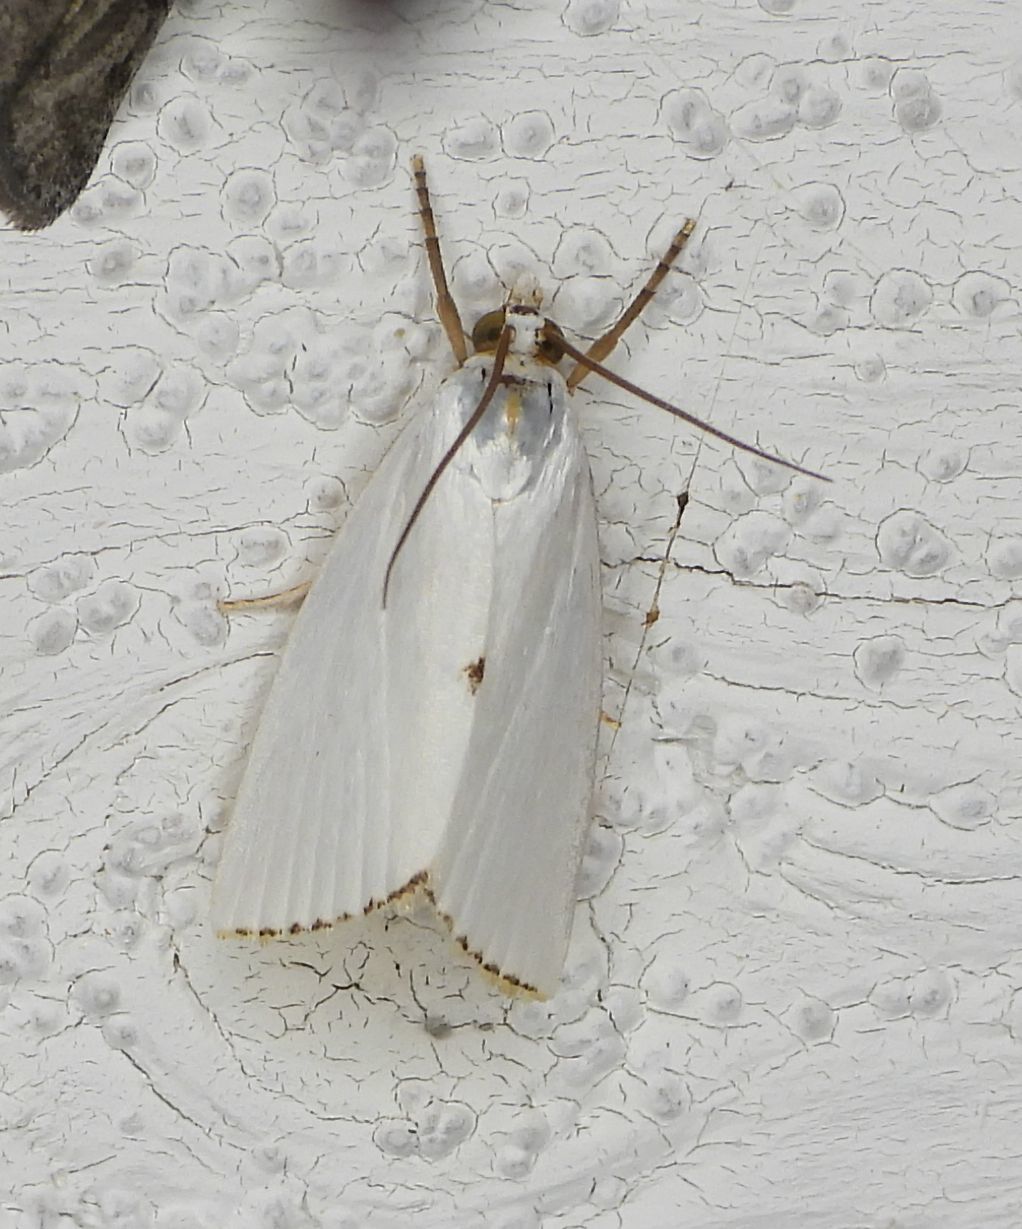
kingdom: Animalia
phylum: Arthropoda
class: Insecta
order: Lepidoptera
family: Crambidae
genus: Argyria
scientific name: Argyria nivalis
